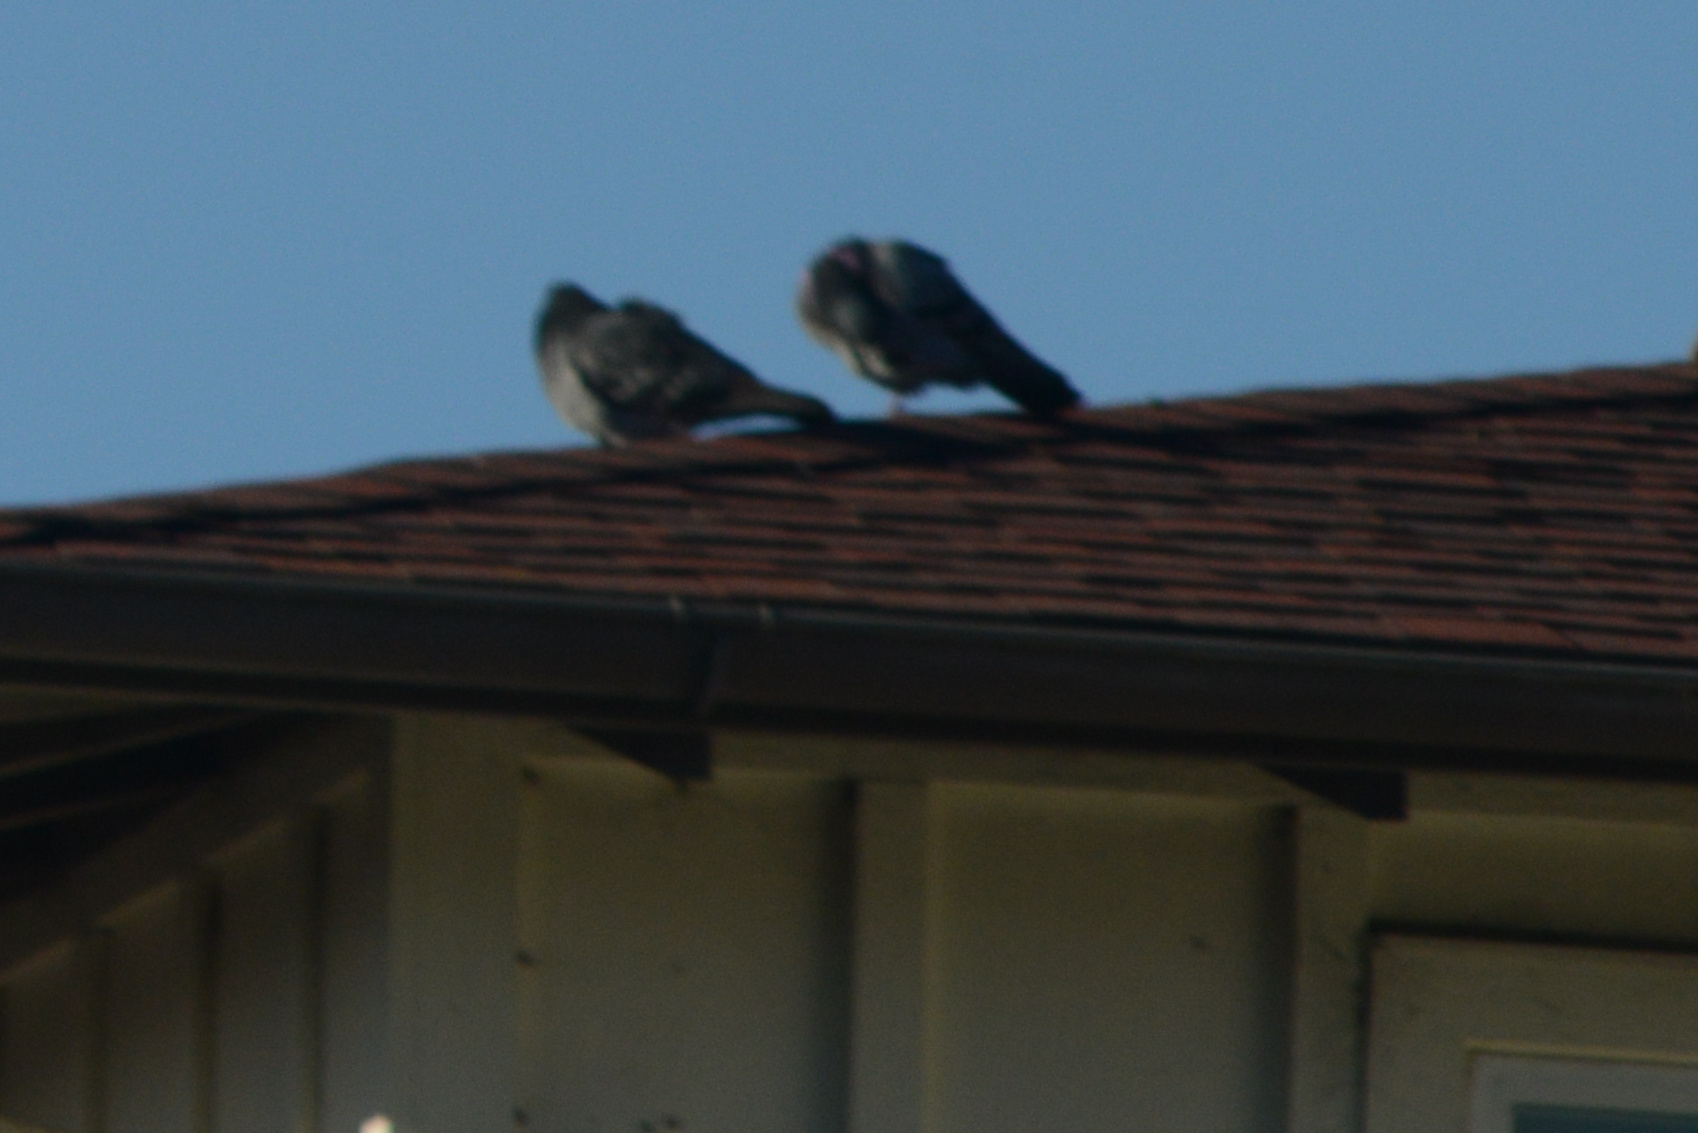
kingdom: Animalia
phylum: Chordata
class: Aves
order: Columbiformes
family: Columbidae
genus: Columba
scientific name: Columba livia
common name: Rock pigeon
